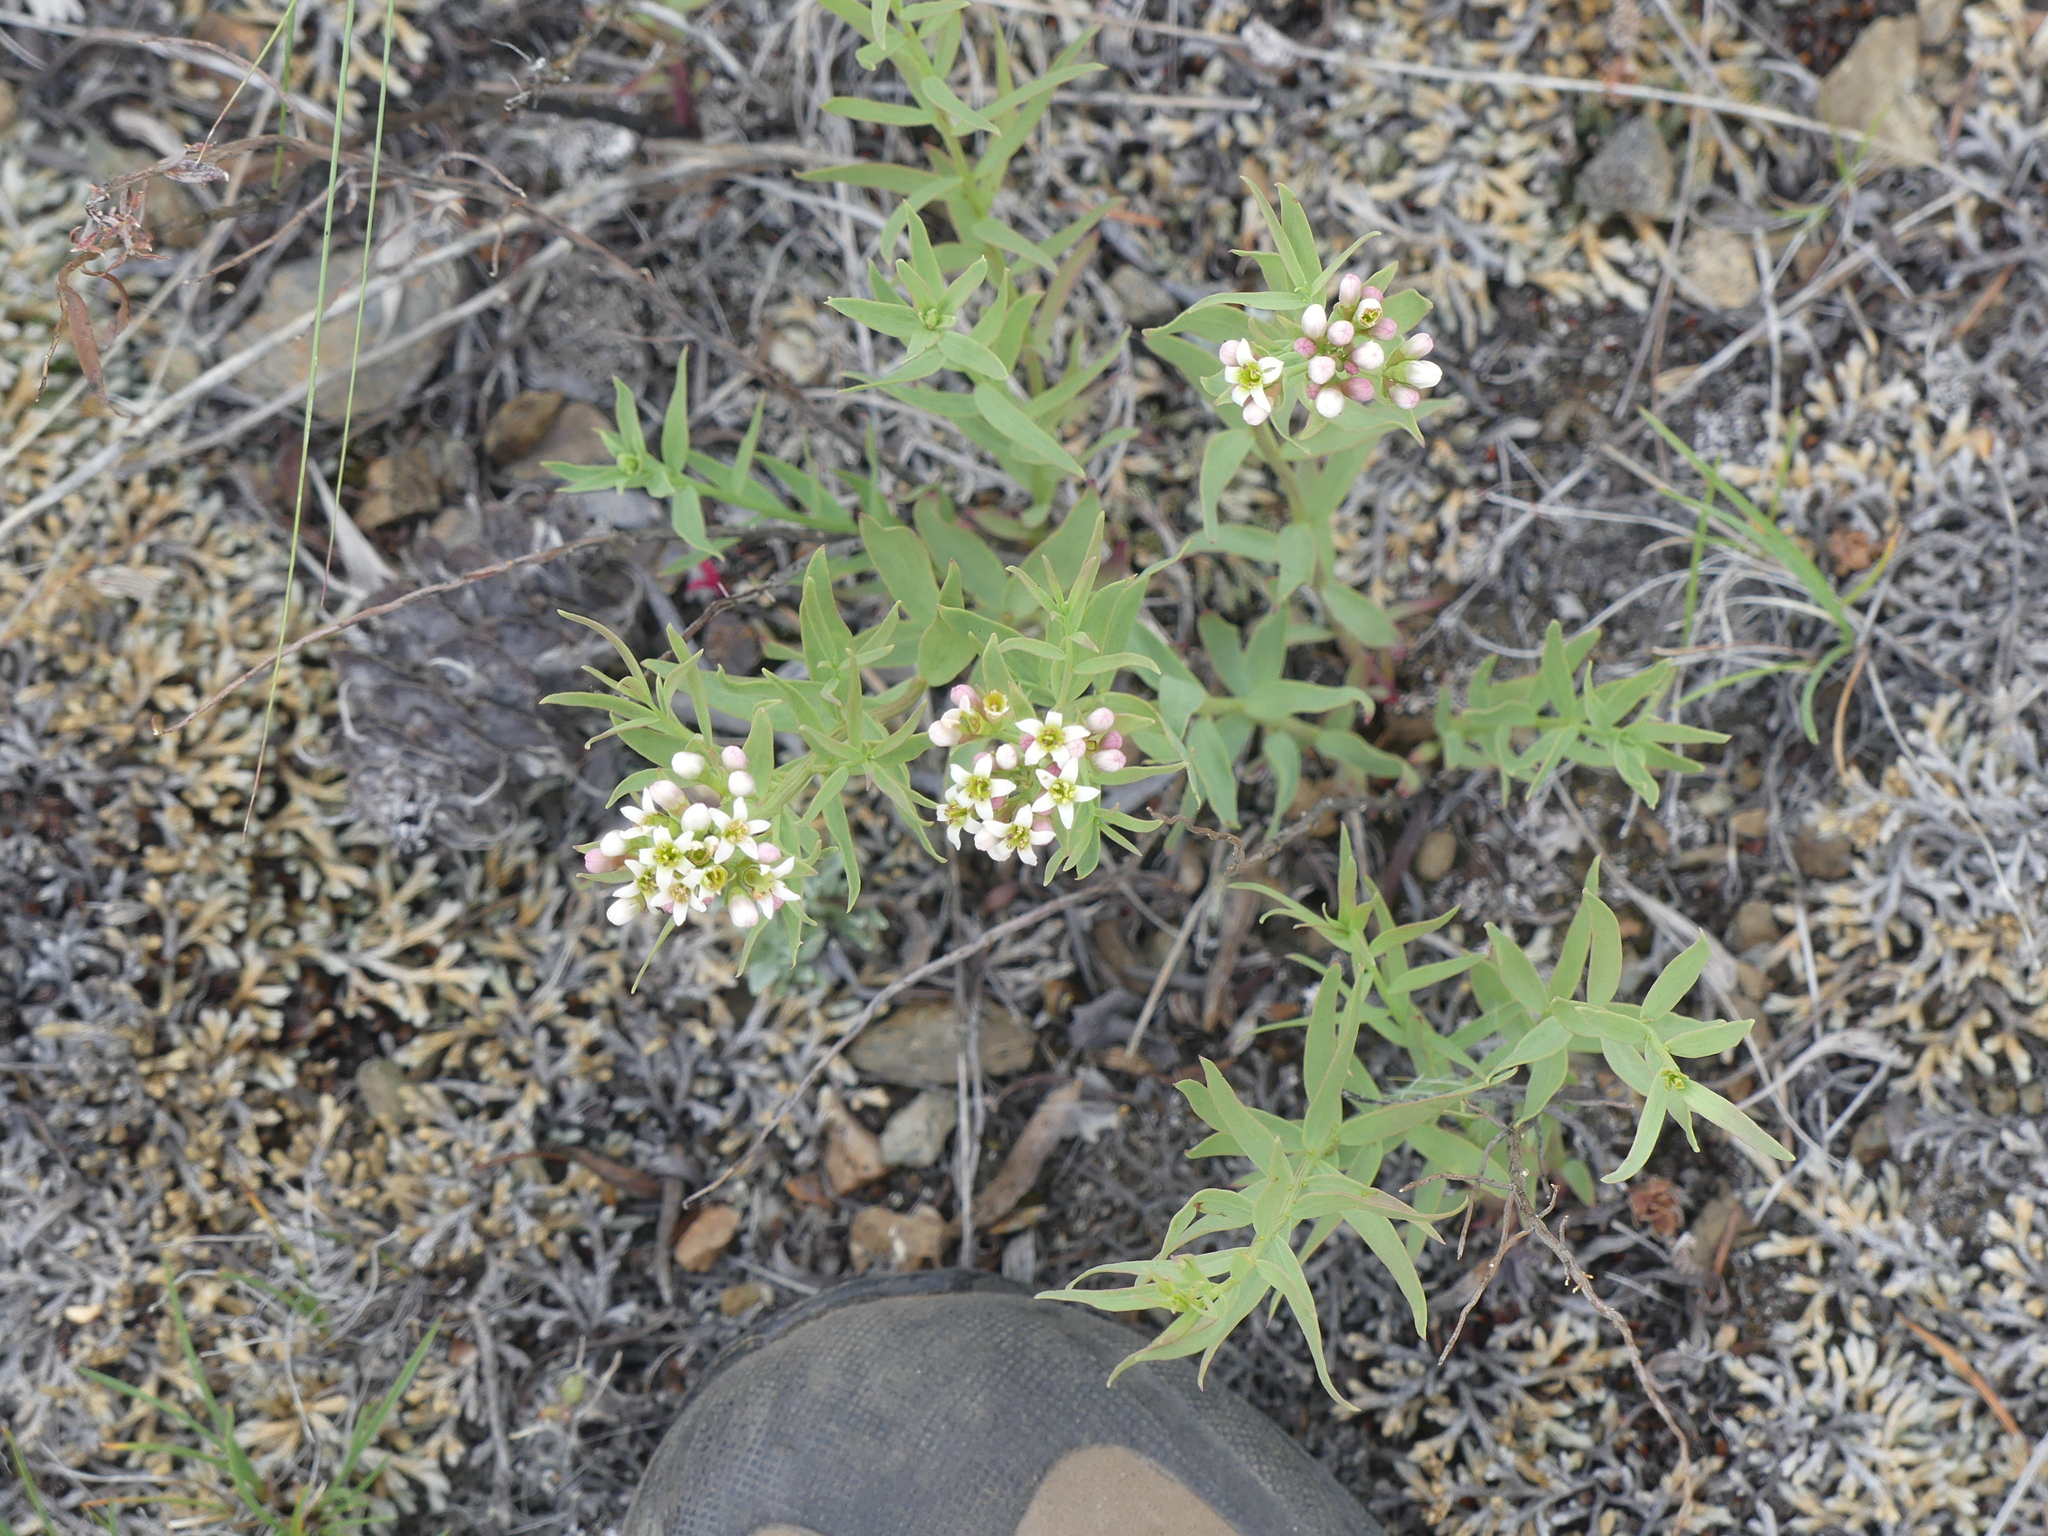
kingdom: Plantae
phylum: Tracheophyta
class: Magnoliopsida
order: Santalales
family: Comandraceae
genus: Comandra
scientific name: Comandra umbellata
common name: Bastard toadflax
